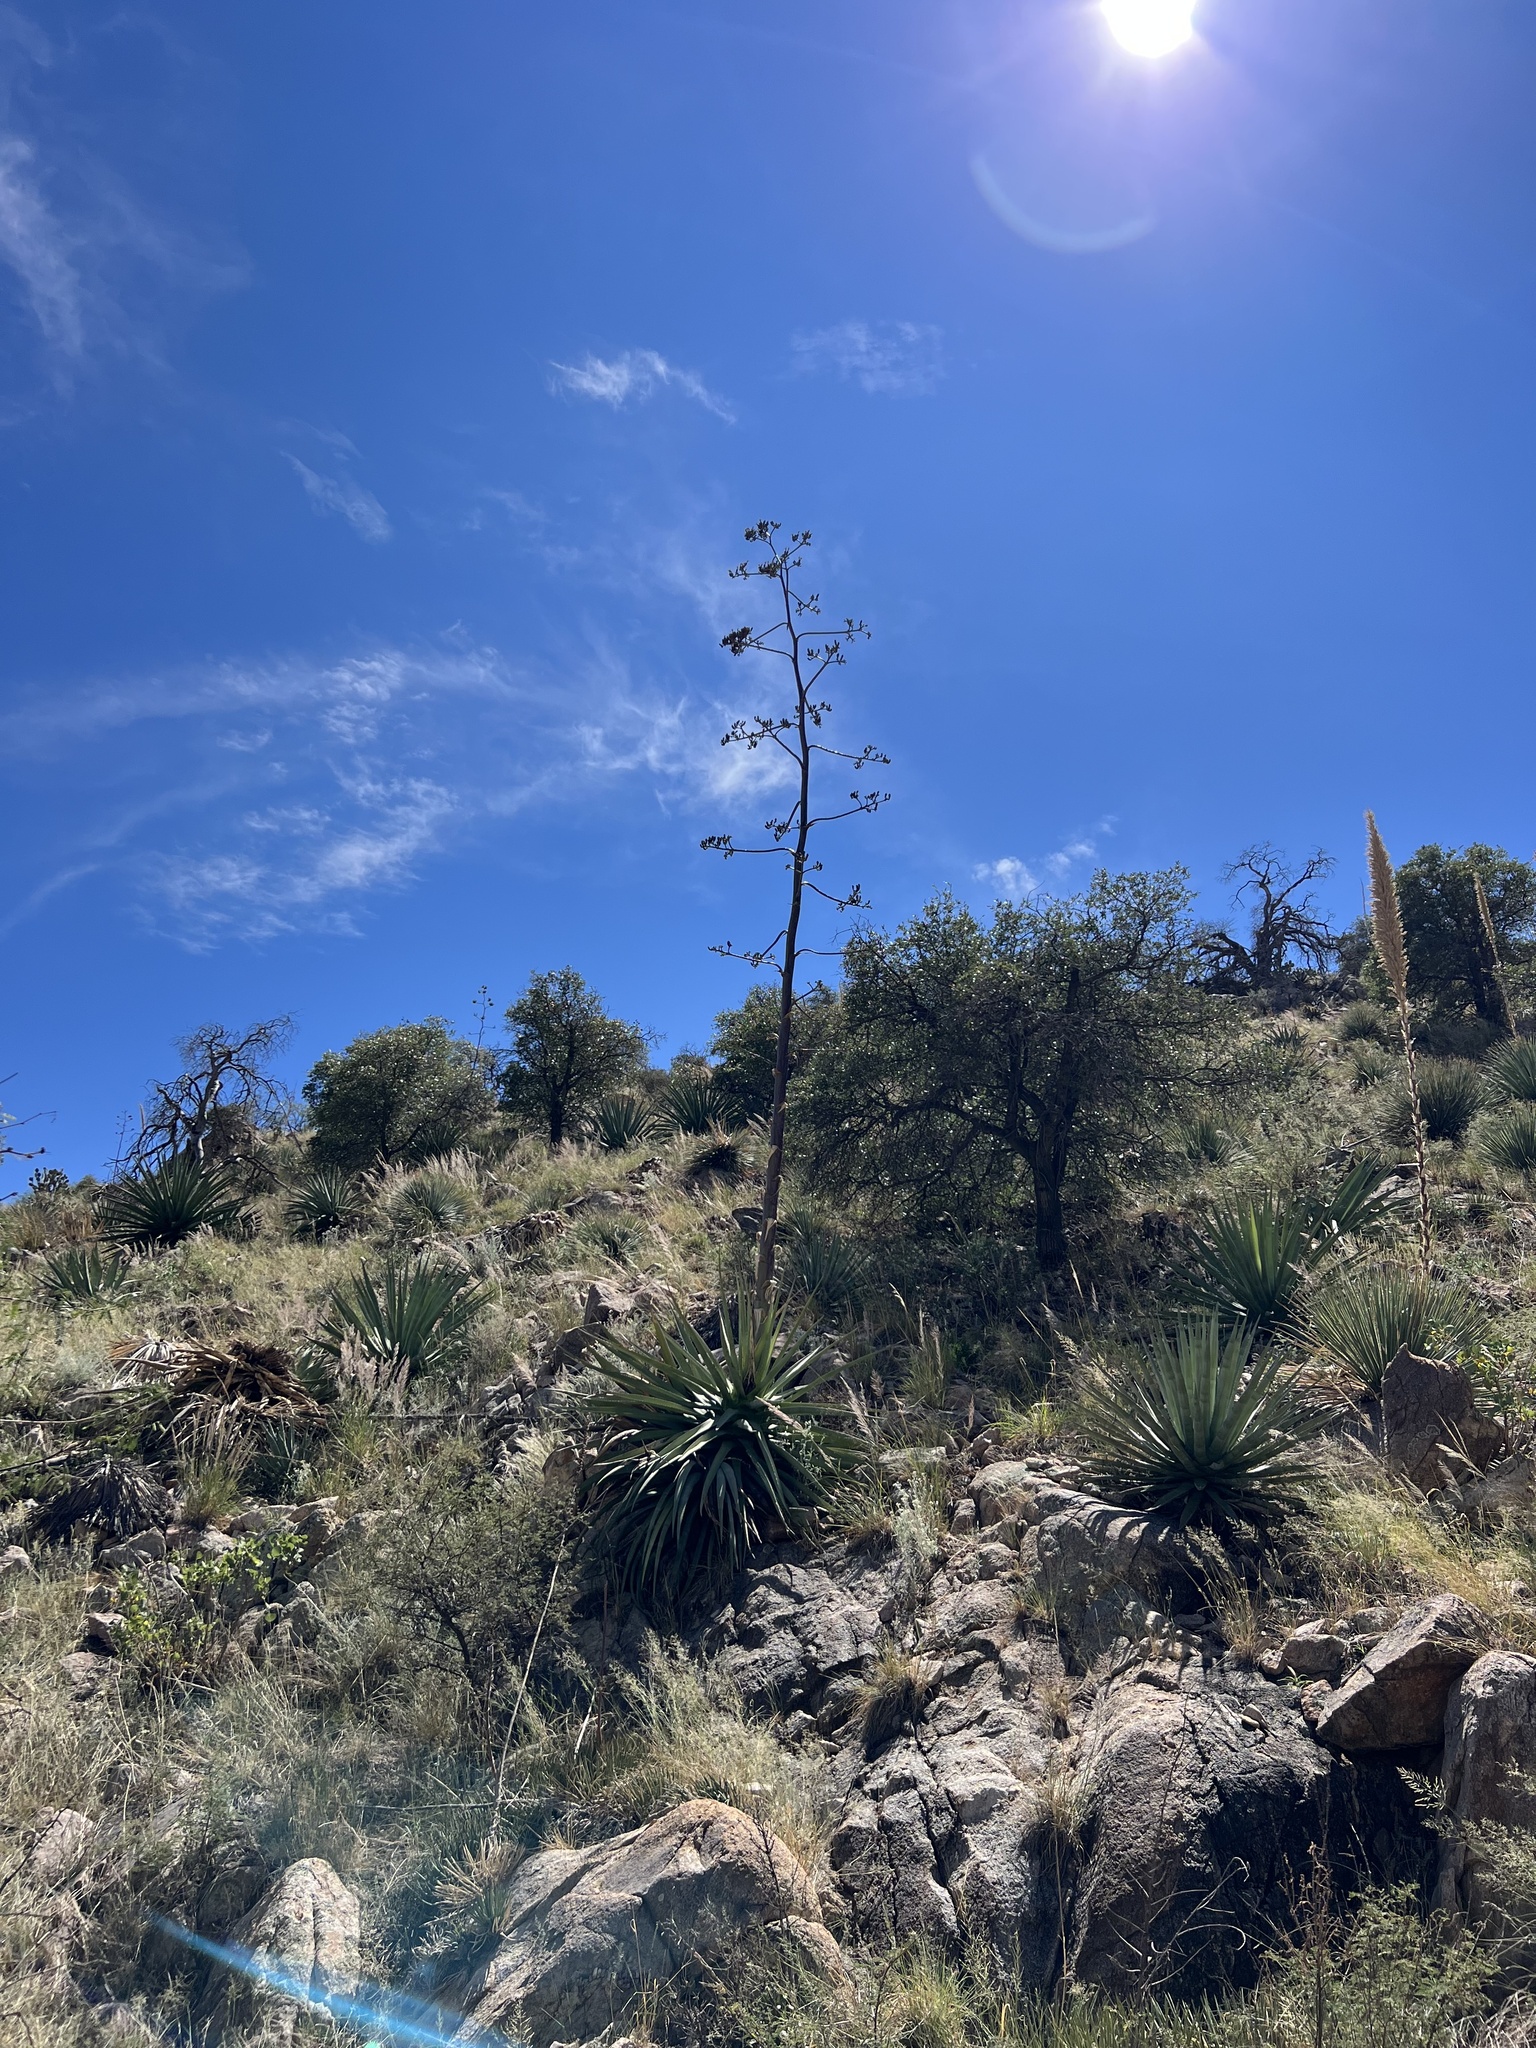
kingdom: Plantae
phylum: Tracheophyta
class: Liliopsida
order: Asparagales
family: Asparagaceae
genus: Agave
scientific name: Agave palmeri
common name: Palmer agave
